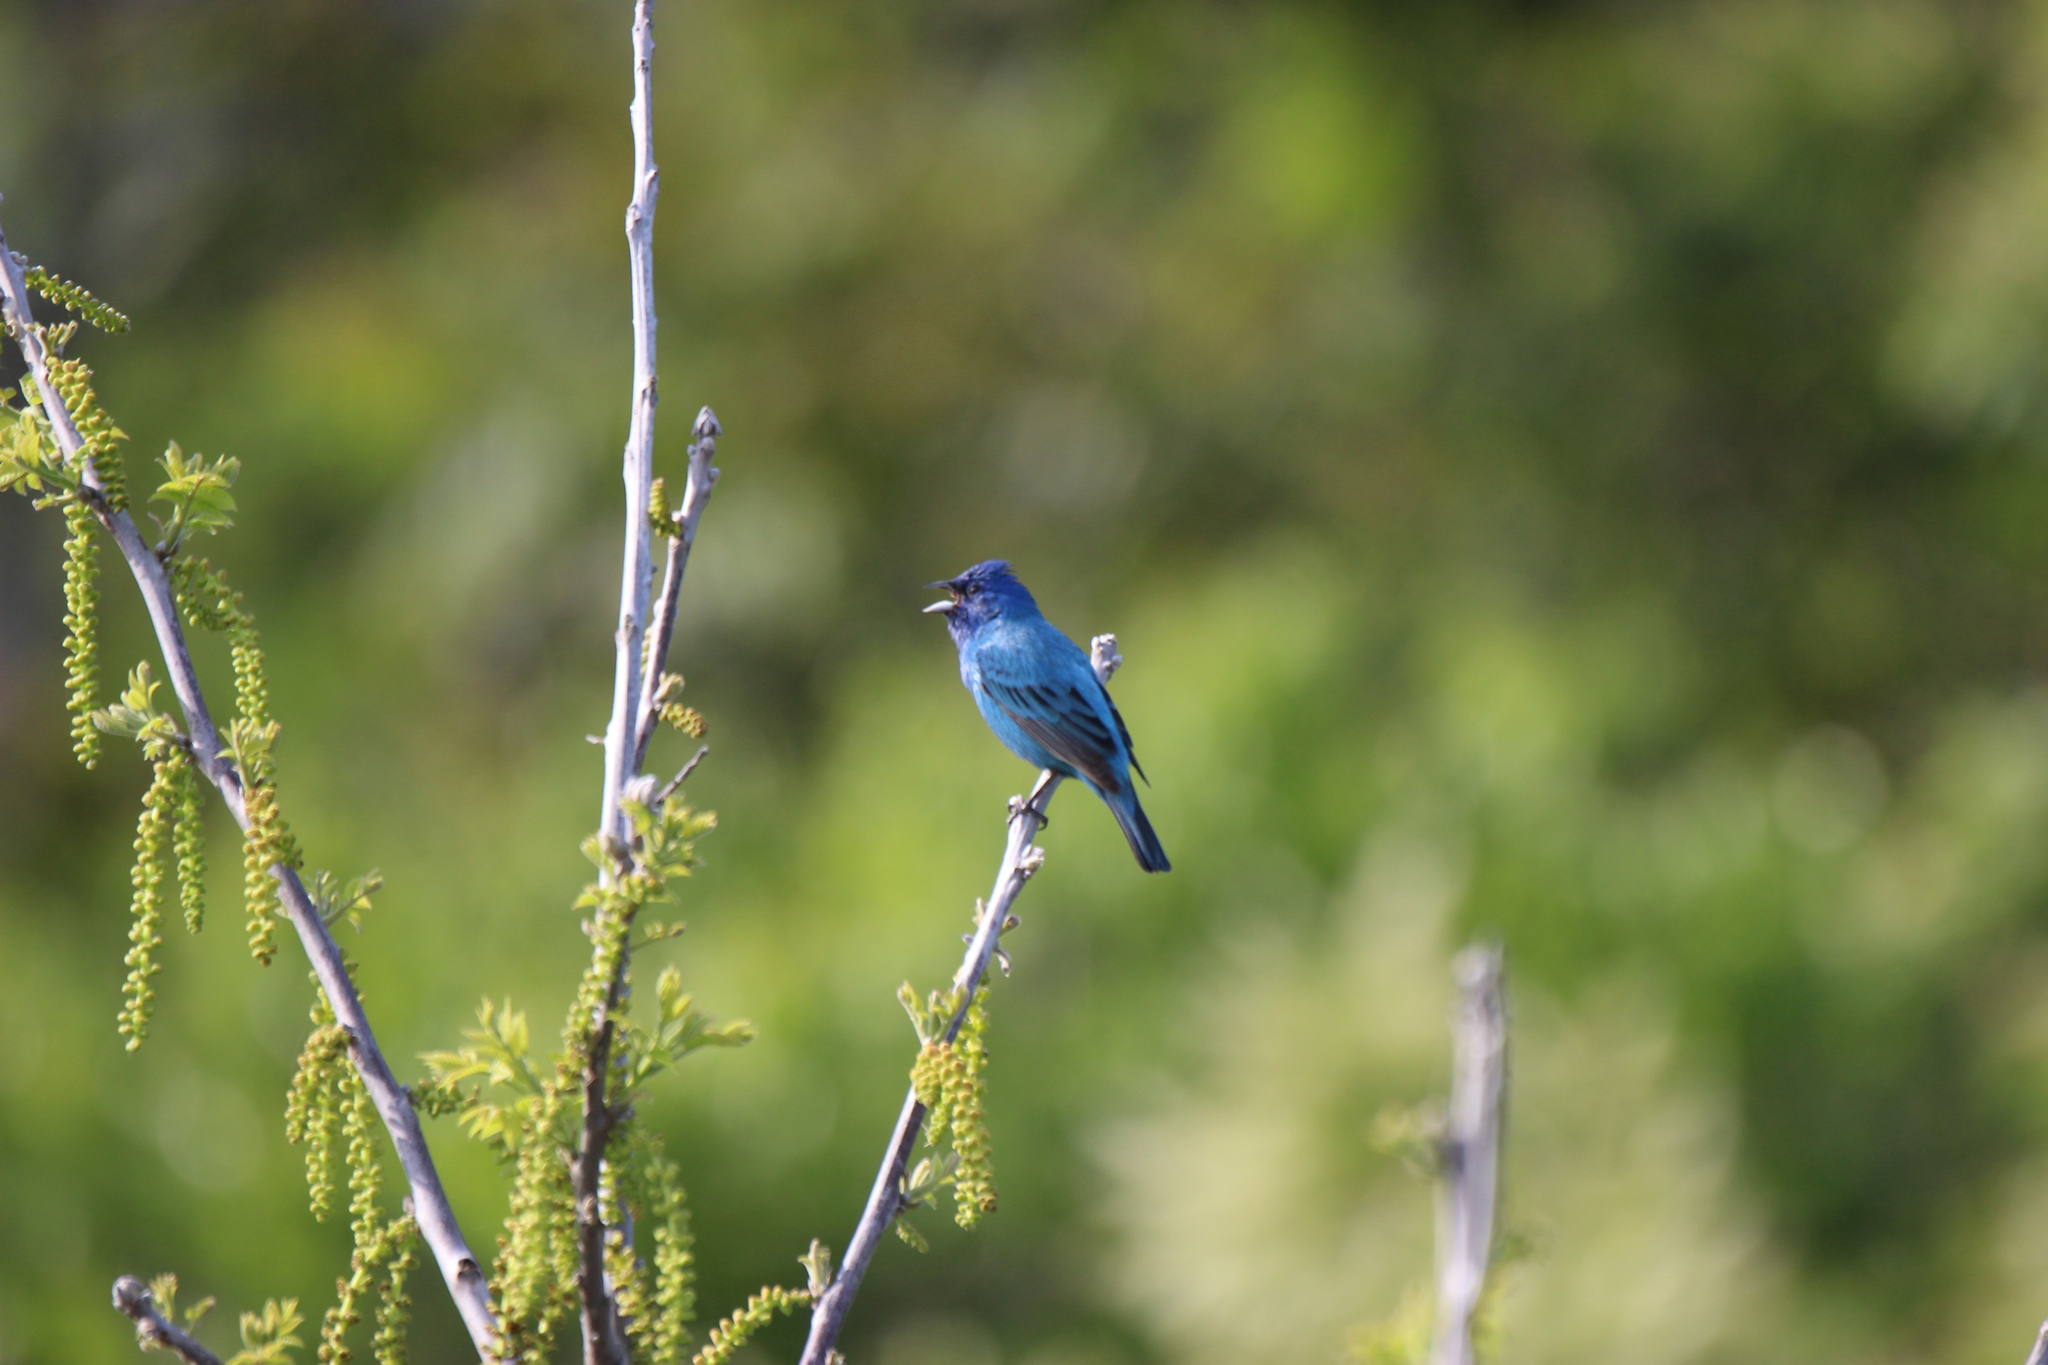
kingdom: Animalia
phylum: Chordata
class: Aves
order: Passeriformes
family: Cardinalidae
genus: Passerina
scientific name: Passerina cyanea
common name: Indigo bunting
